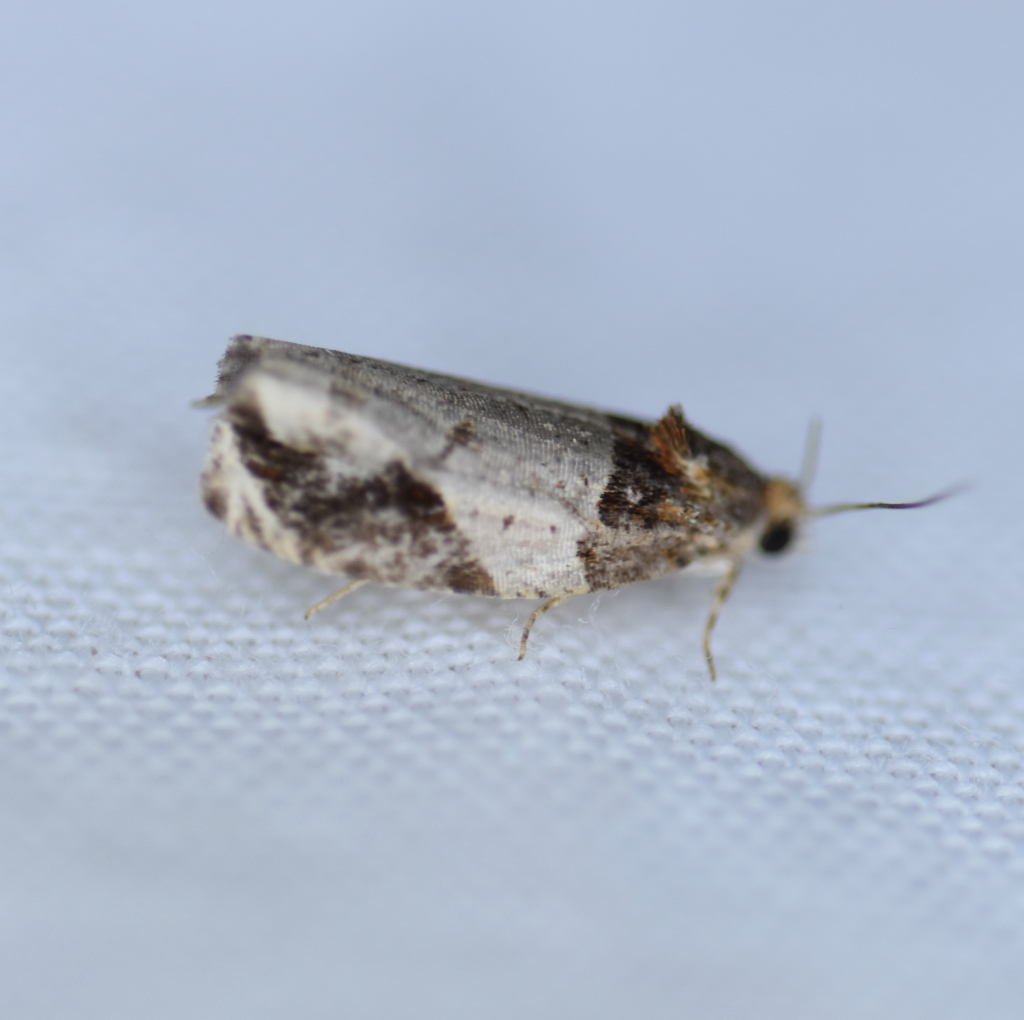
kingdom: Animalia
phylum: Arthropoda
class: Insecta
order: Lepidoptera
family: Tortricidae
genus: Olethreutes
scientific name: Olethreutes ferriferana
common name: Hydrangea leaftier moth
